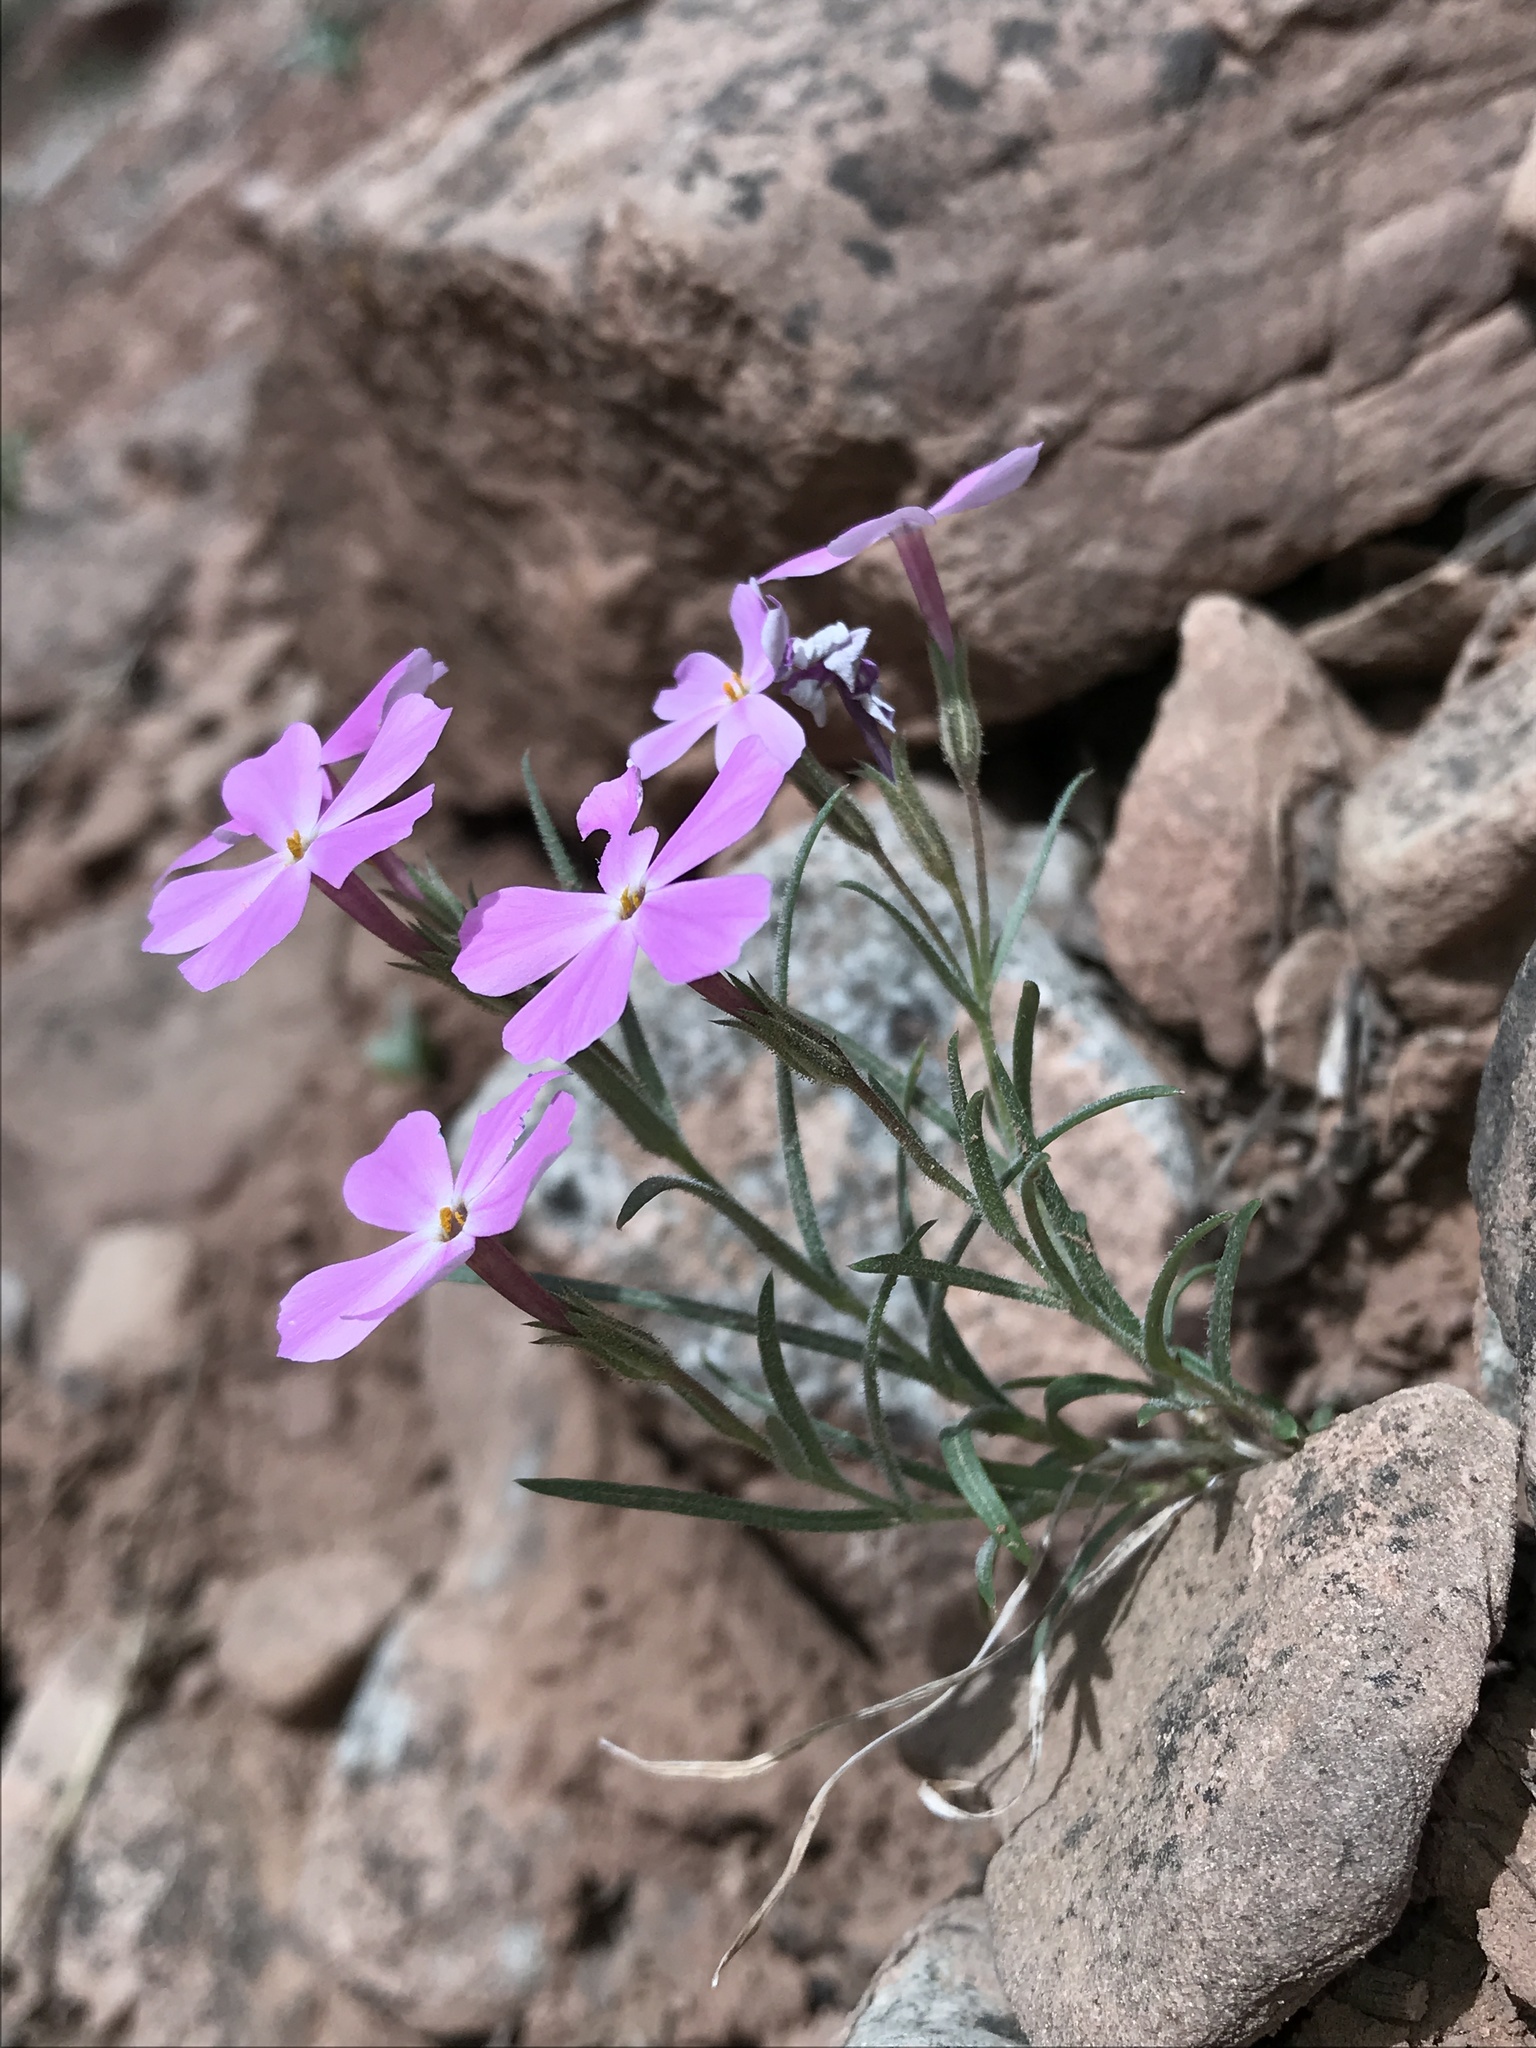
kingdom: Plantae
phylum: Tracheophyta
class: Magnoliopsida
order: Ericales
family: Polemoniaceae
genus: Phlox
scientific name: Phlox longifolia
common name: Longleaf phlox
